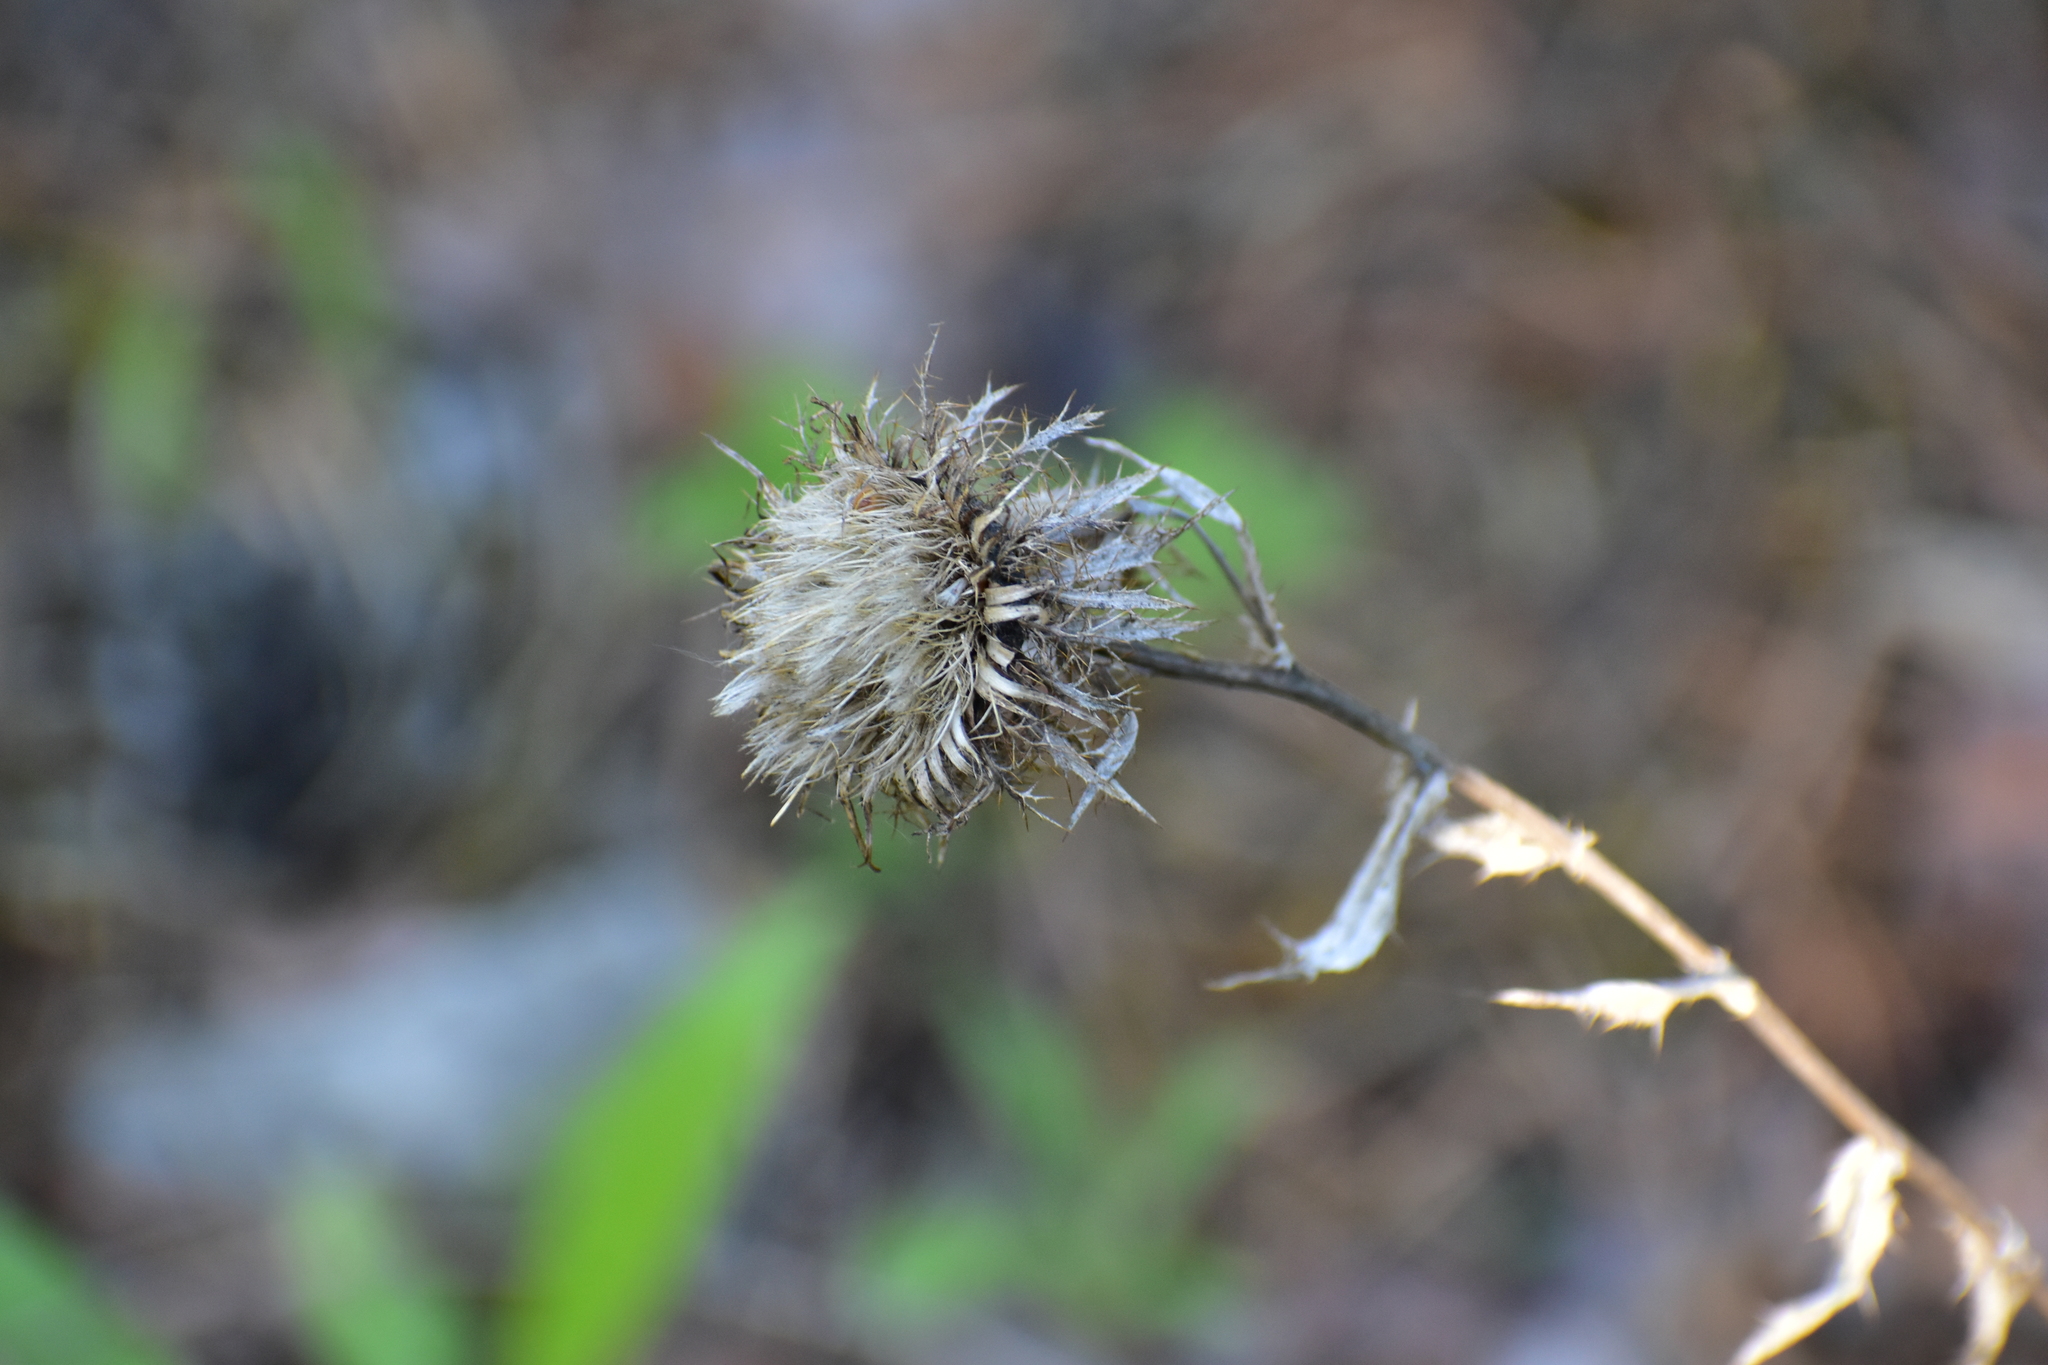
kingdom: Plantae
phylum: Tracheophyta
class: Magnoliopsida
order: Asterales
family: Asteraceae
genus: Carlina
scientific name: Carlina biebersteinii
